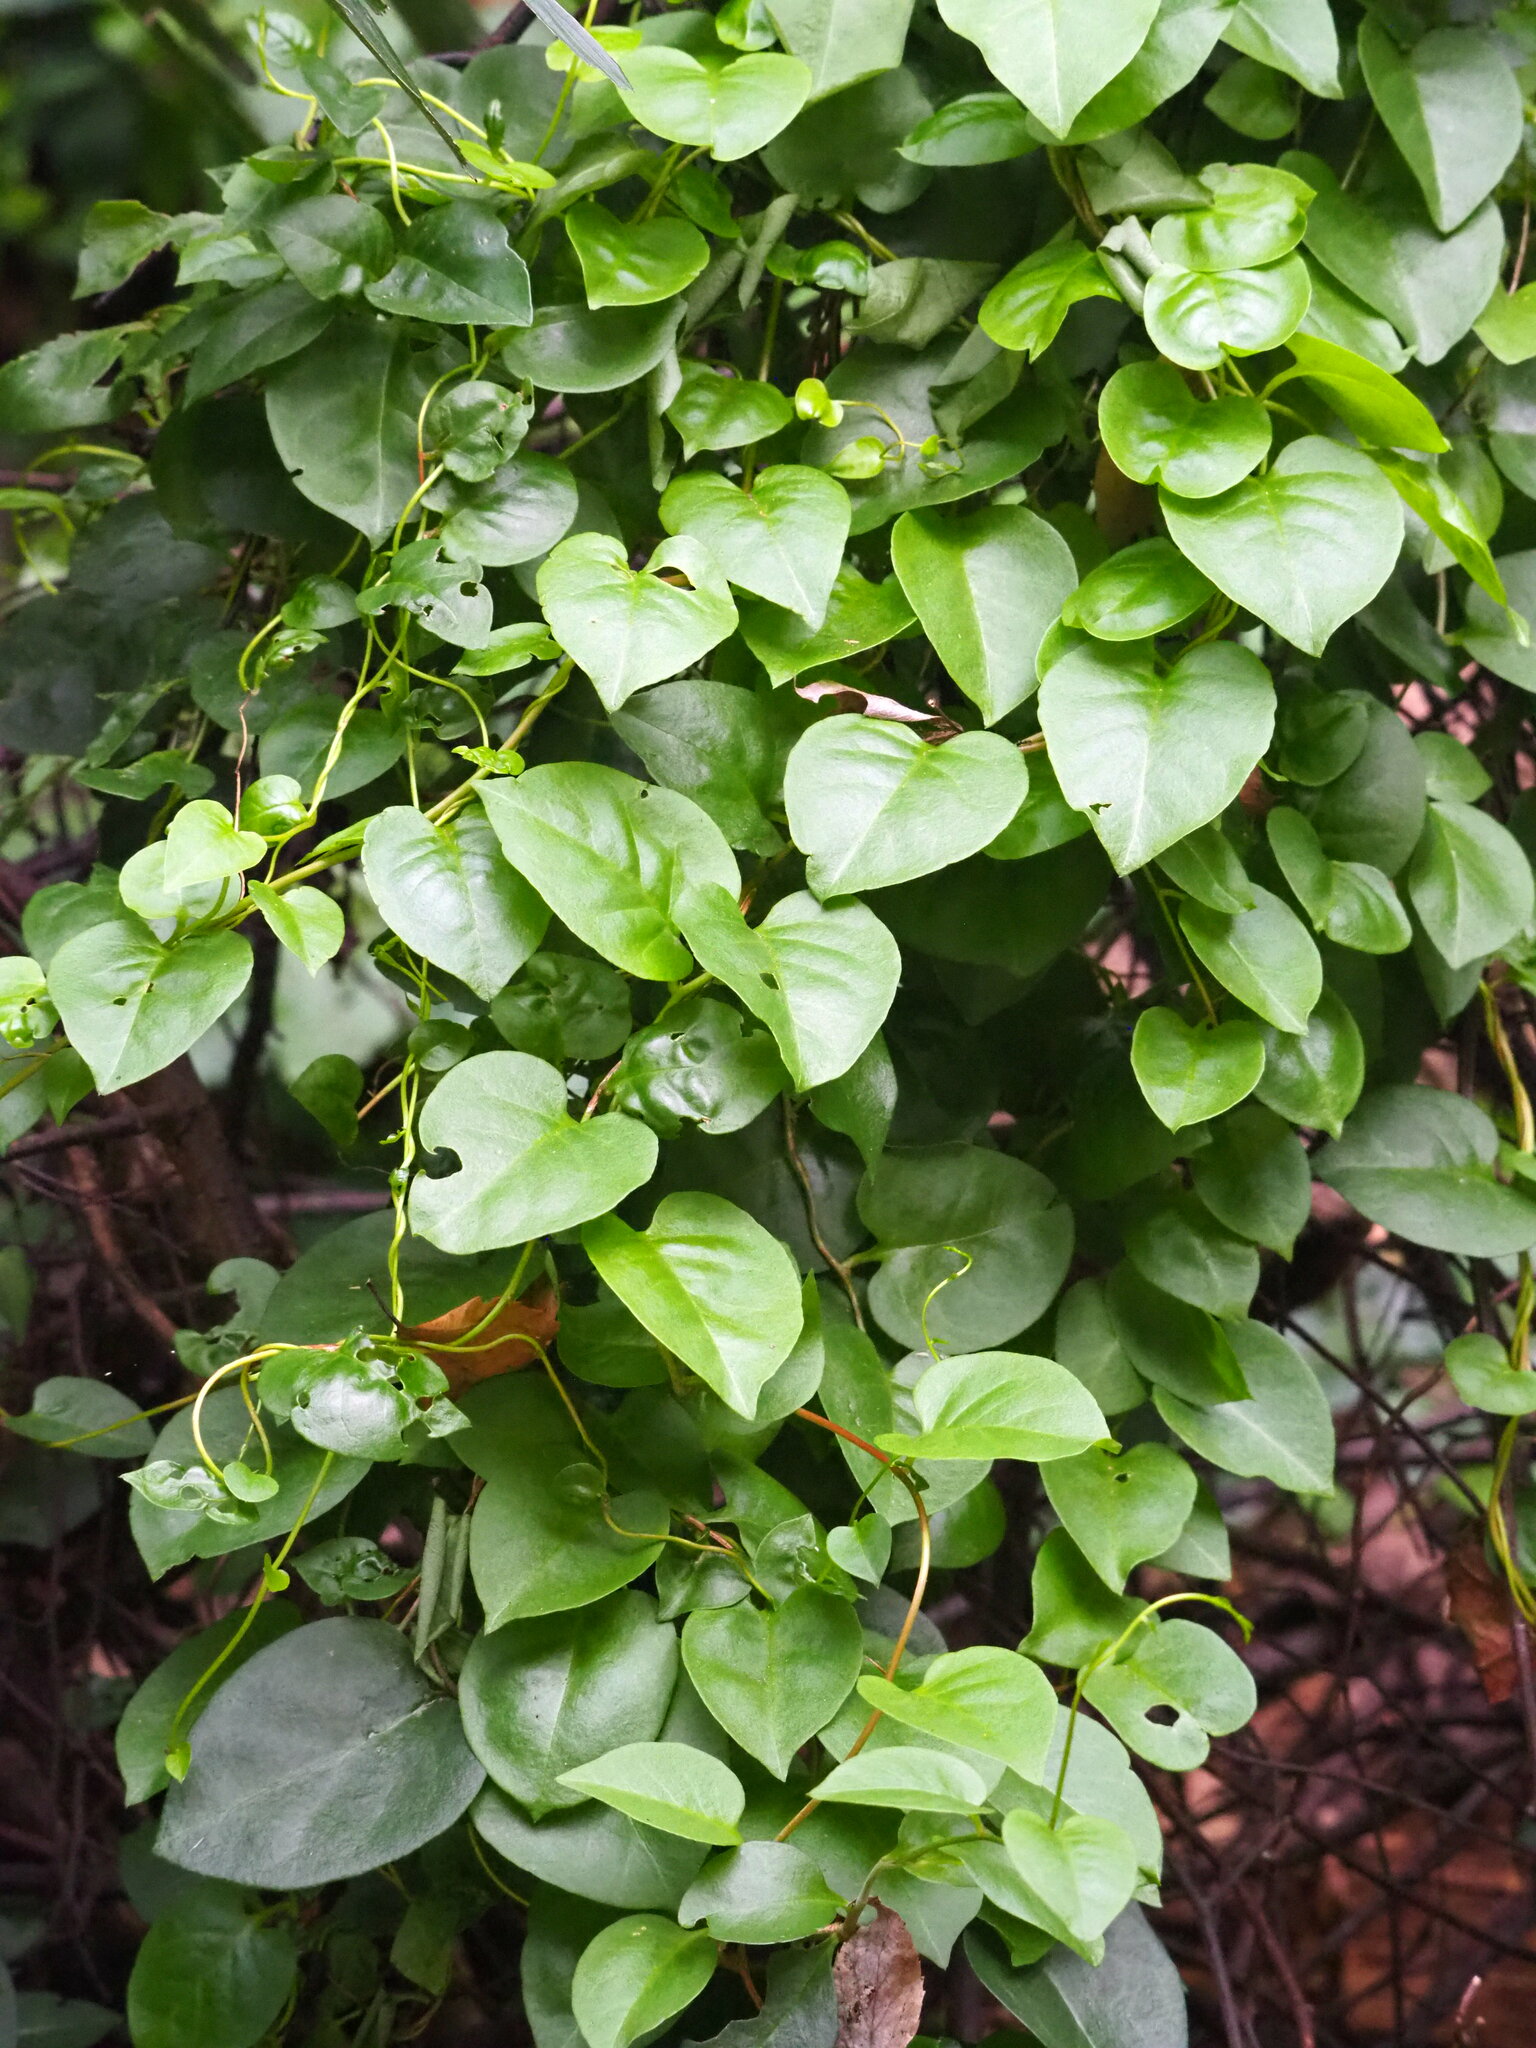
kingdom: Plantae
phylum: Tracheophyta
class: Magnoliopsida
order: Caryophyllales
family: Basellaceae
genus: Anredera
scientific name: Anredera cordifolia
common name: Heartleaf madeiravine
